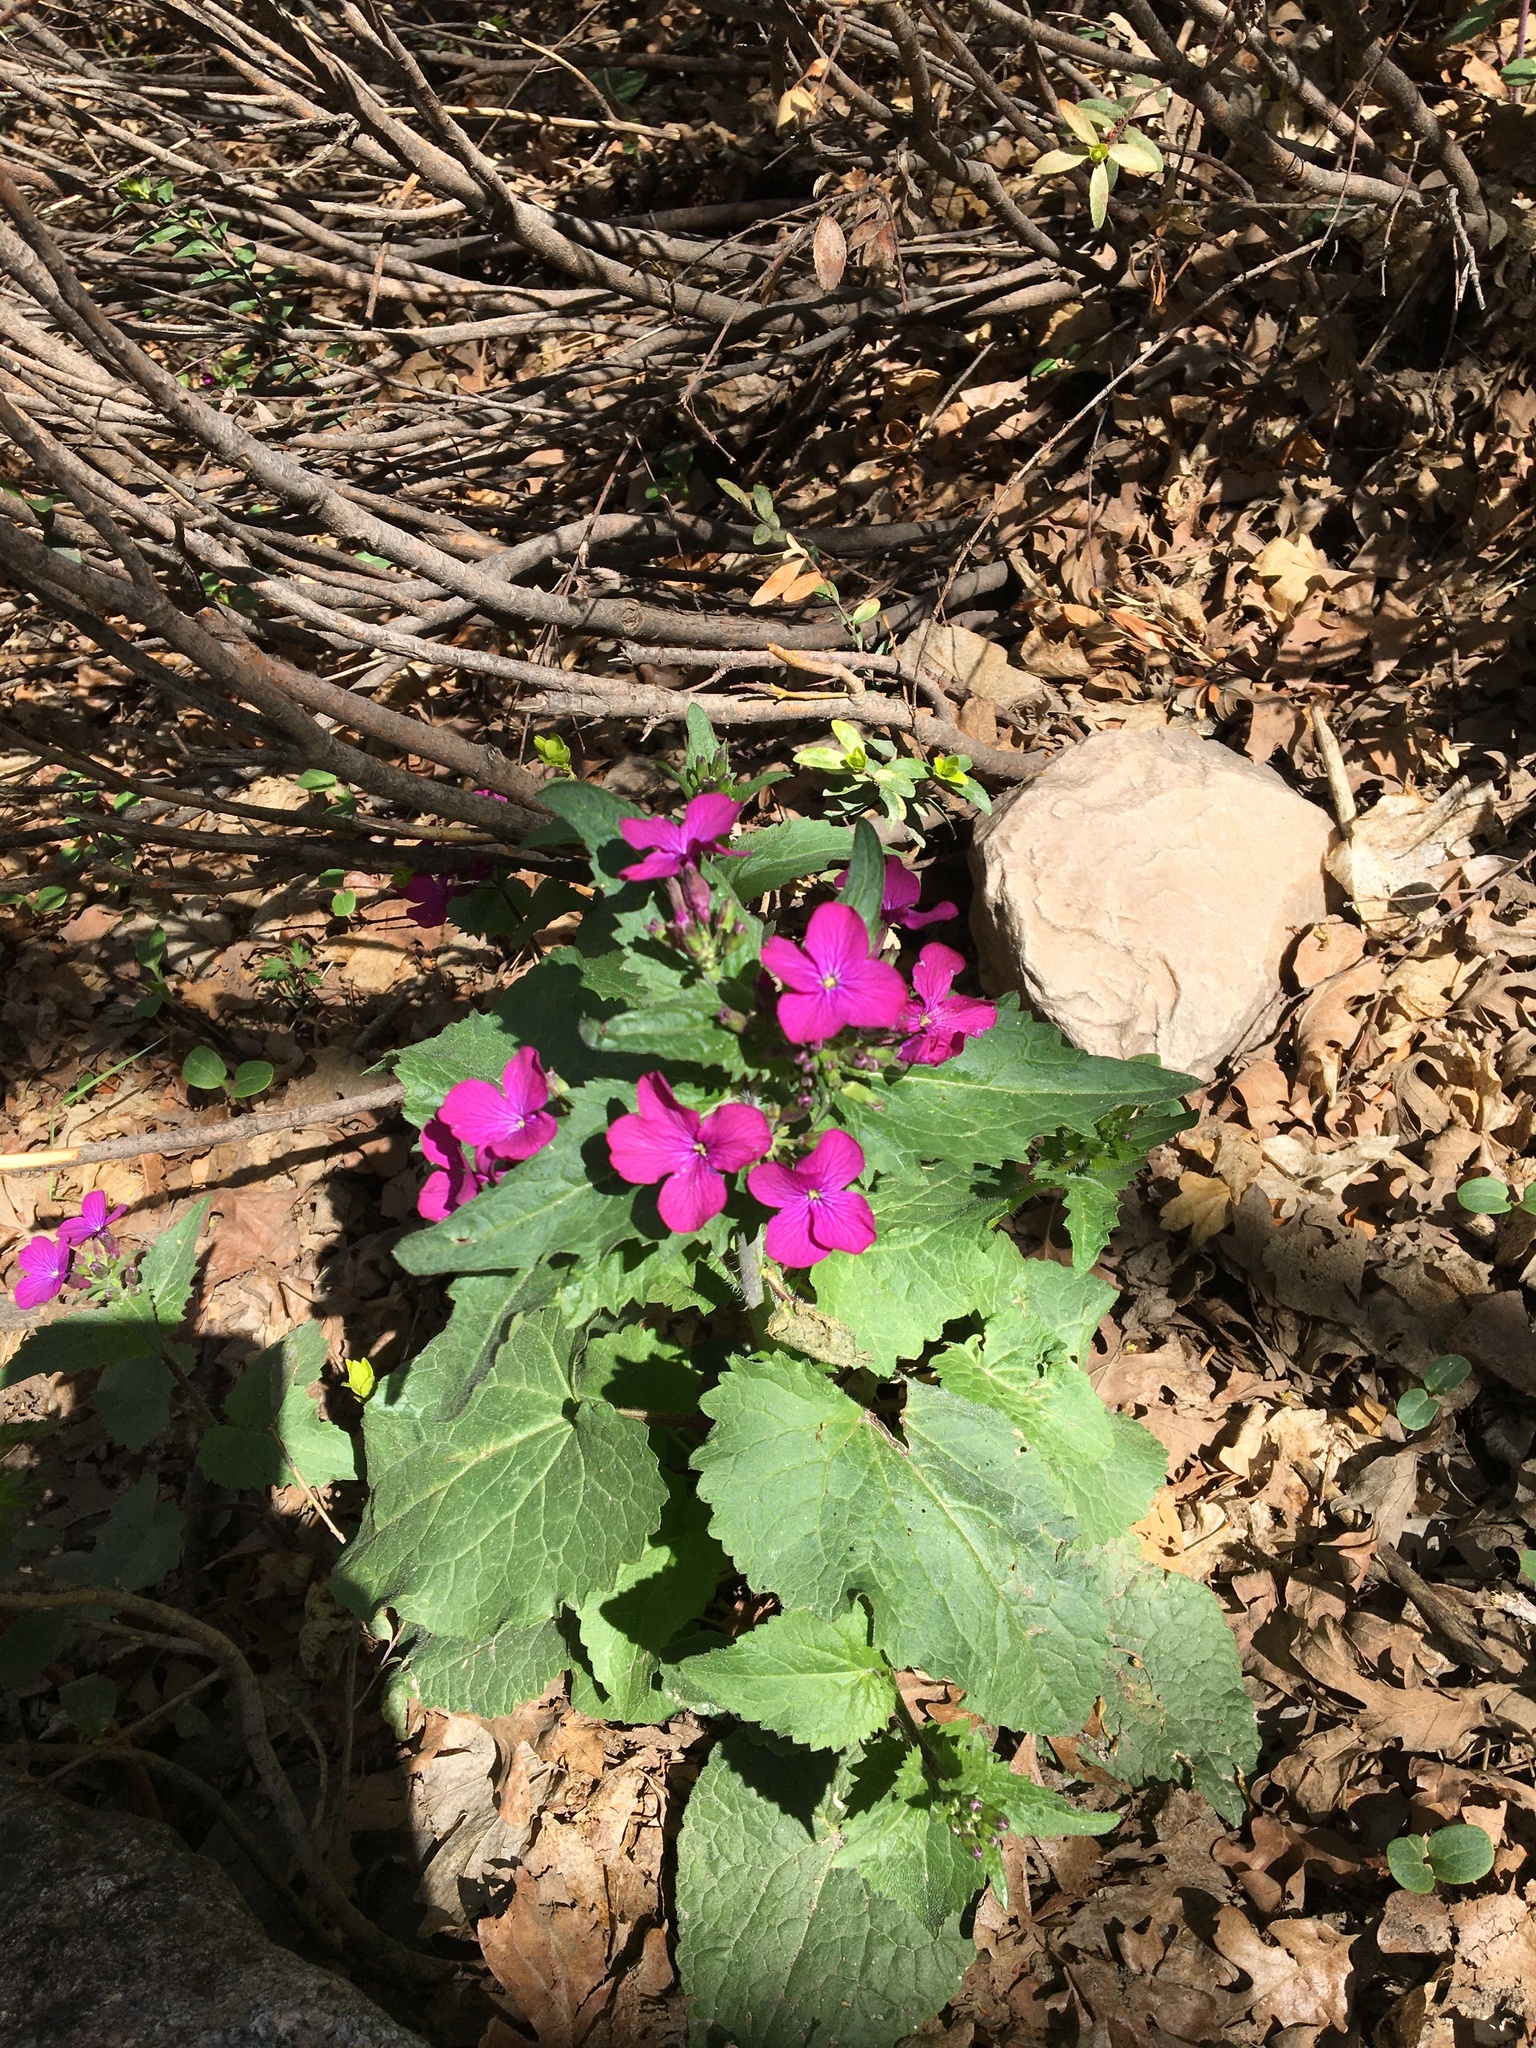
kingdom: Plantae
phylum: Tracheophyta
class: Magnoliopsida
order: Brassicales
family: Brassicaceae
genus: Lunaria
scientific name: Lunaria annua
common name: Honesty
